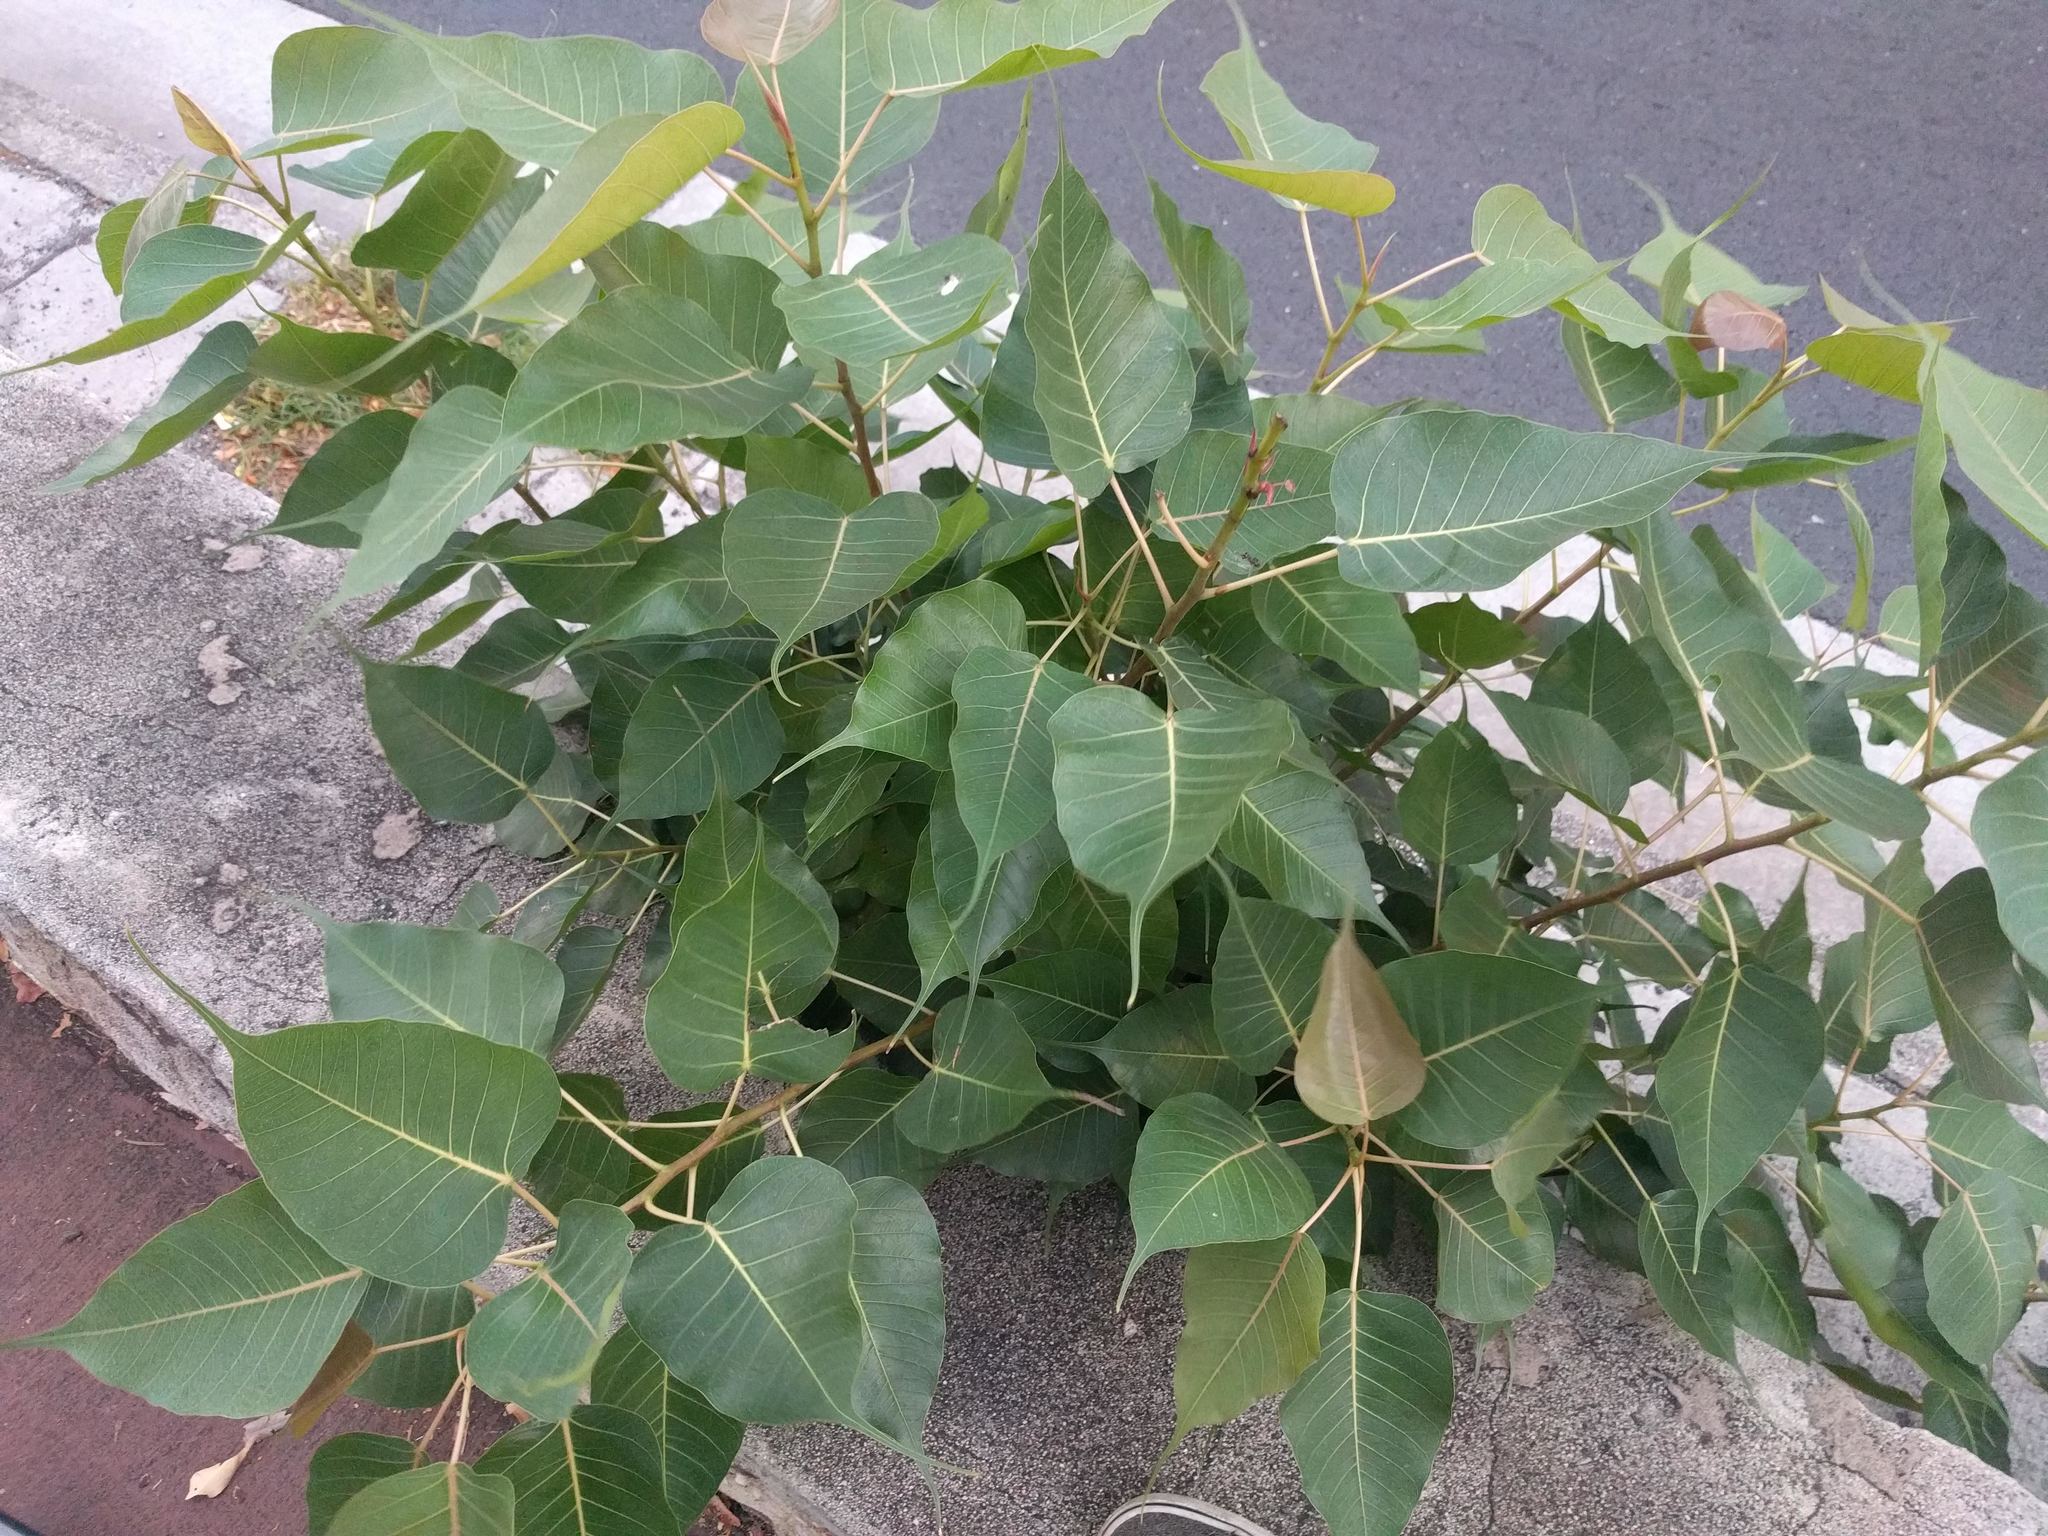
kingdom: Plantae
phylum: Tracheophyta
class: Magnoliopsida
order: Rosales
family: Moraceae
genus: Ficus
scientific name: Ficus religiosa
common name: Bodhi tree
